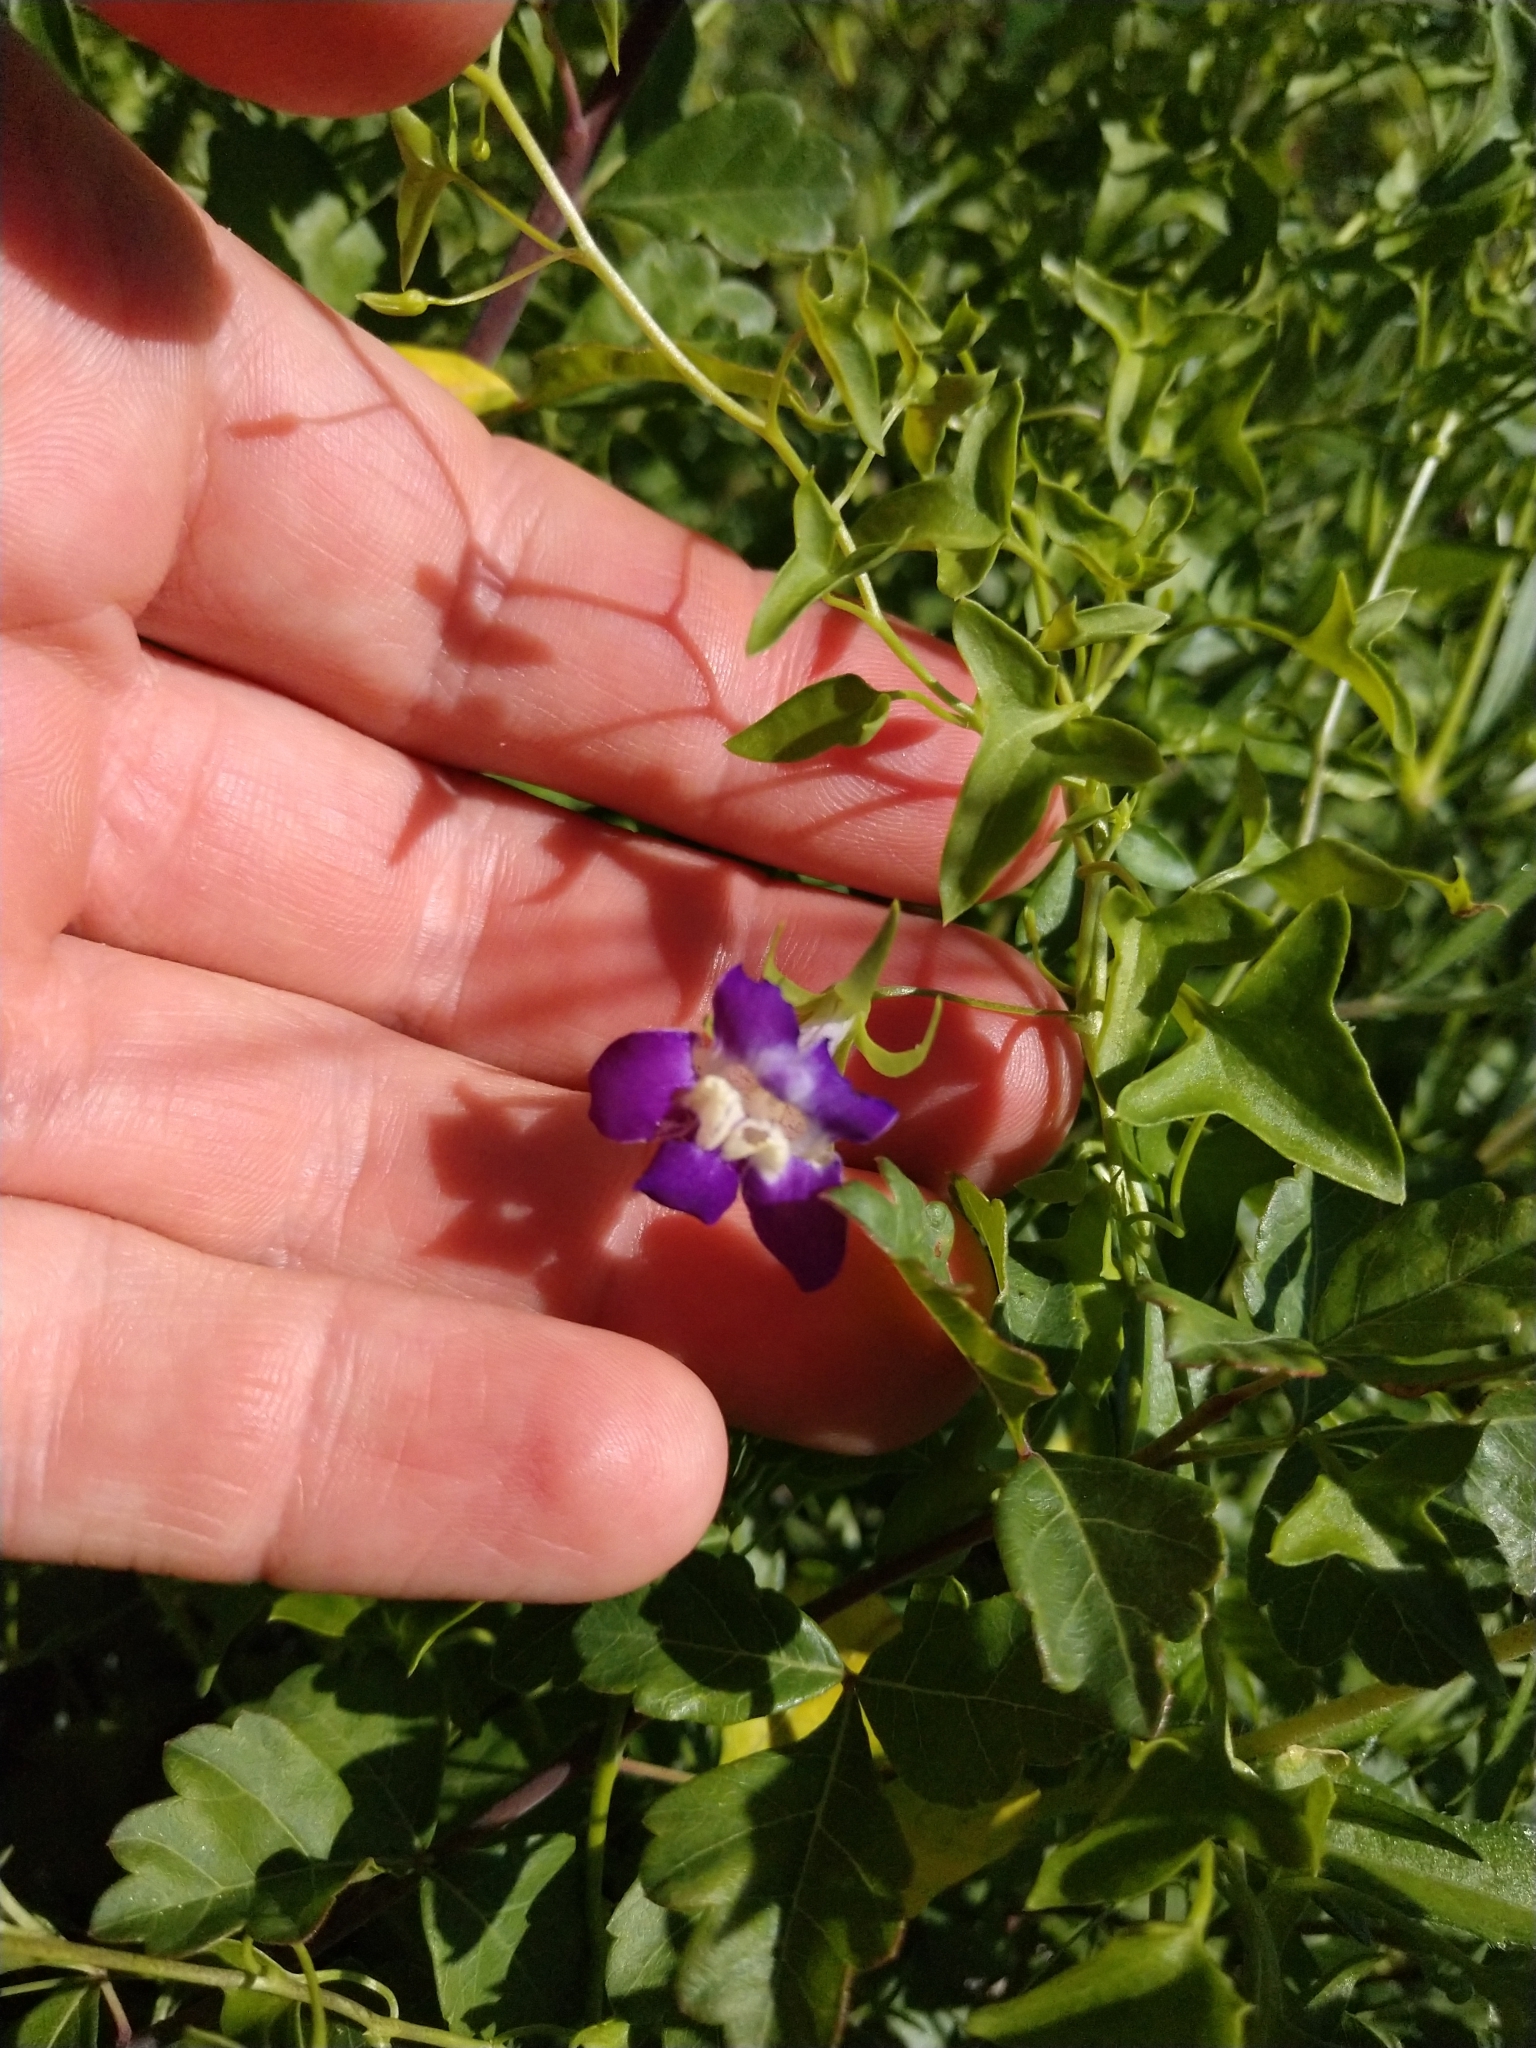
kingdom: Plantae
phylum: Tracheophyta
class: Magnoliopsida
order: Lamiales
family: Plantaginaceae
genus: Maurandella
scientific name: Maurandella antirrhiniflora
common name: Violet twining-snapdragon
